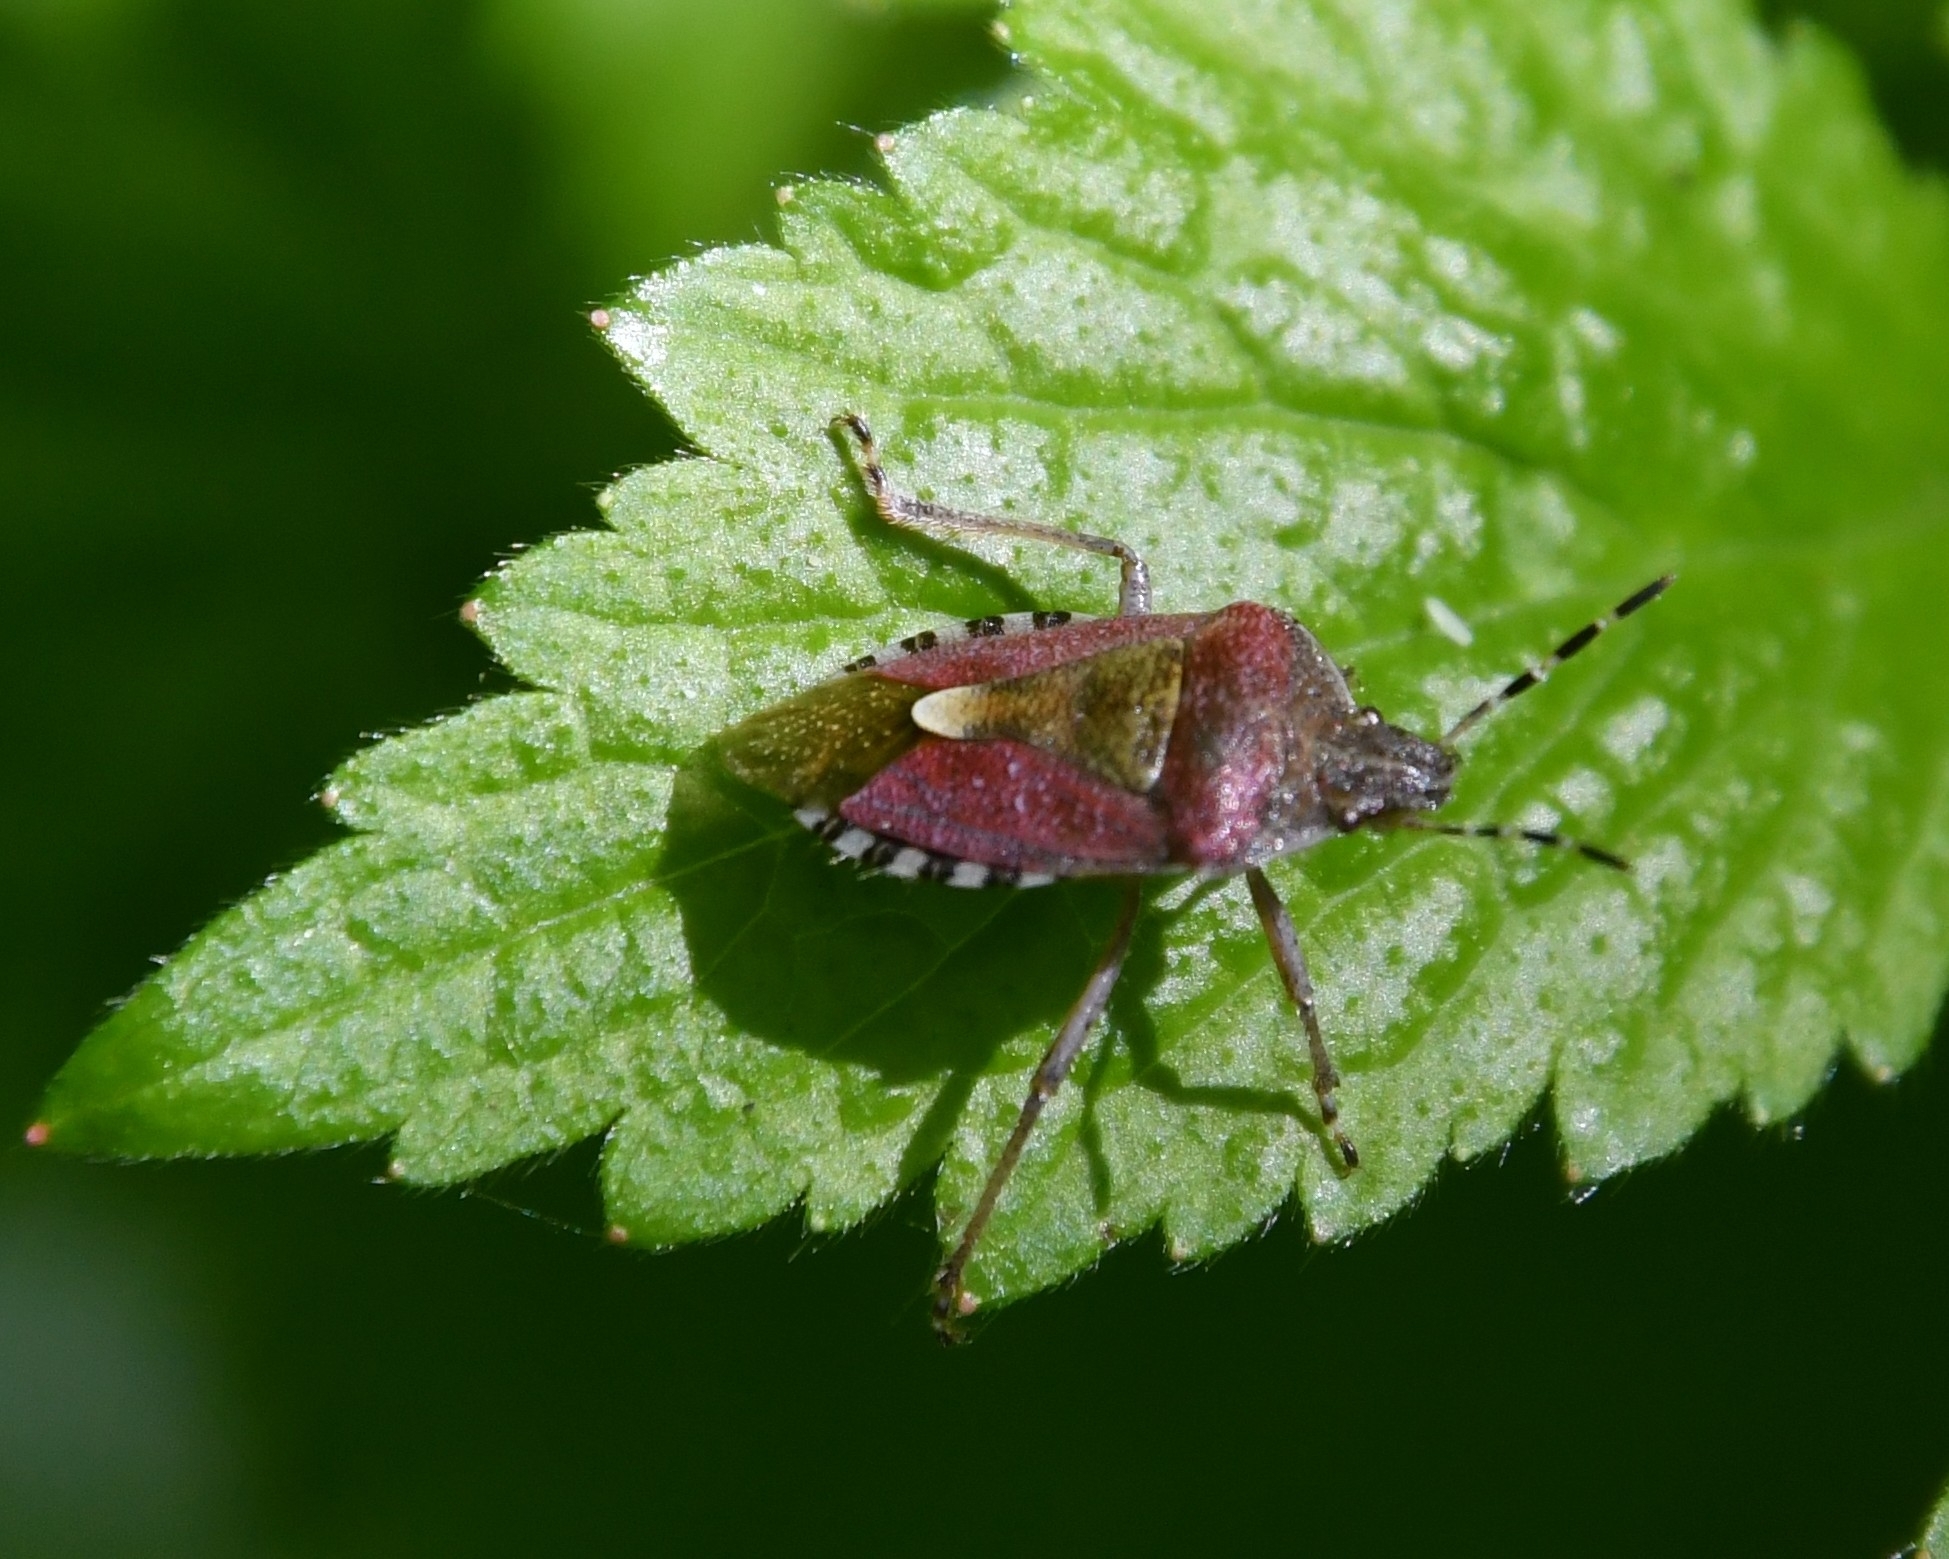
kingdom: Animalia
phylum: Arthropoda
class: Insecta
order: Hemiptera
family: Pentatomidae
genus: Dolycoris
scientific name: Dolycoris baccarum
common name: Sloe bug
